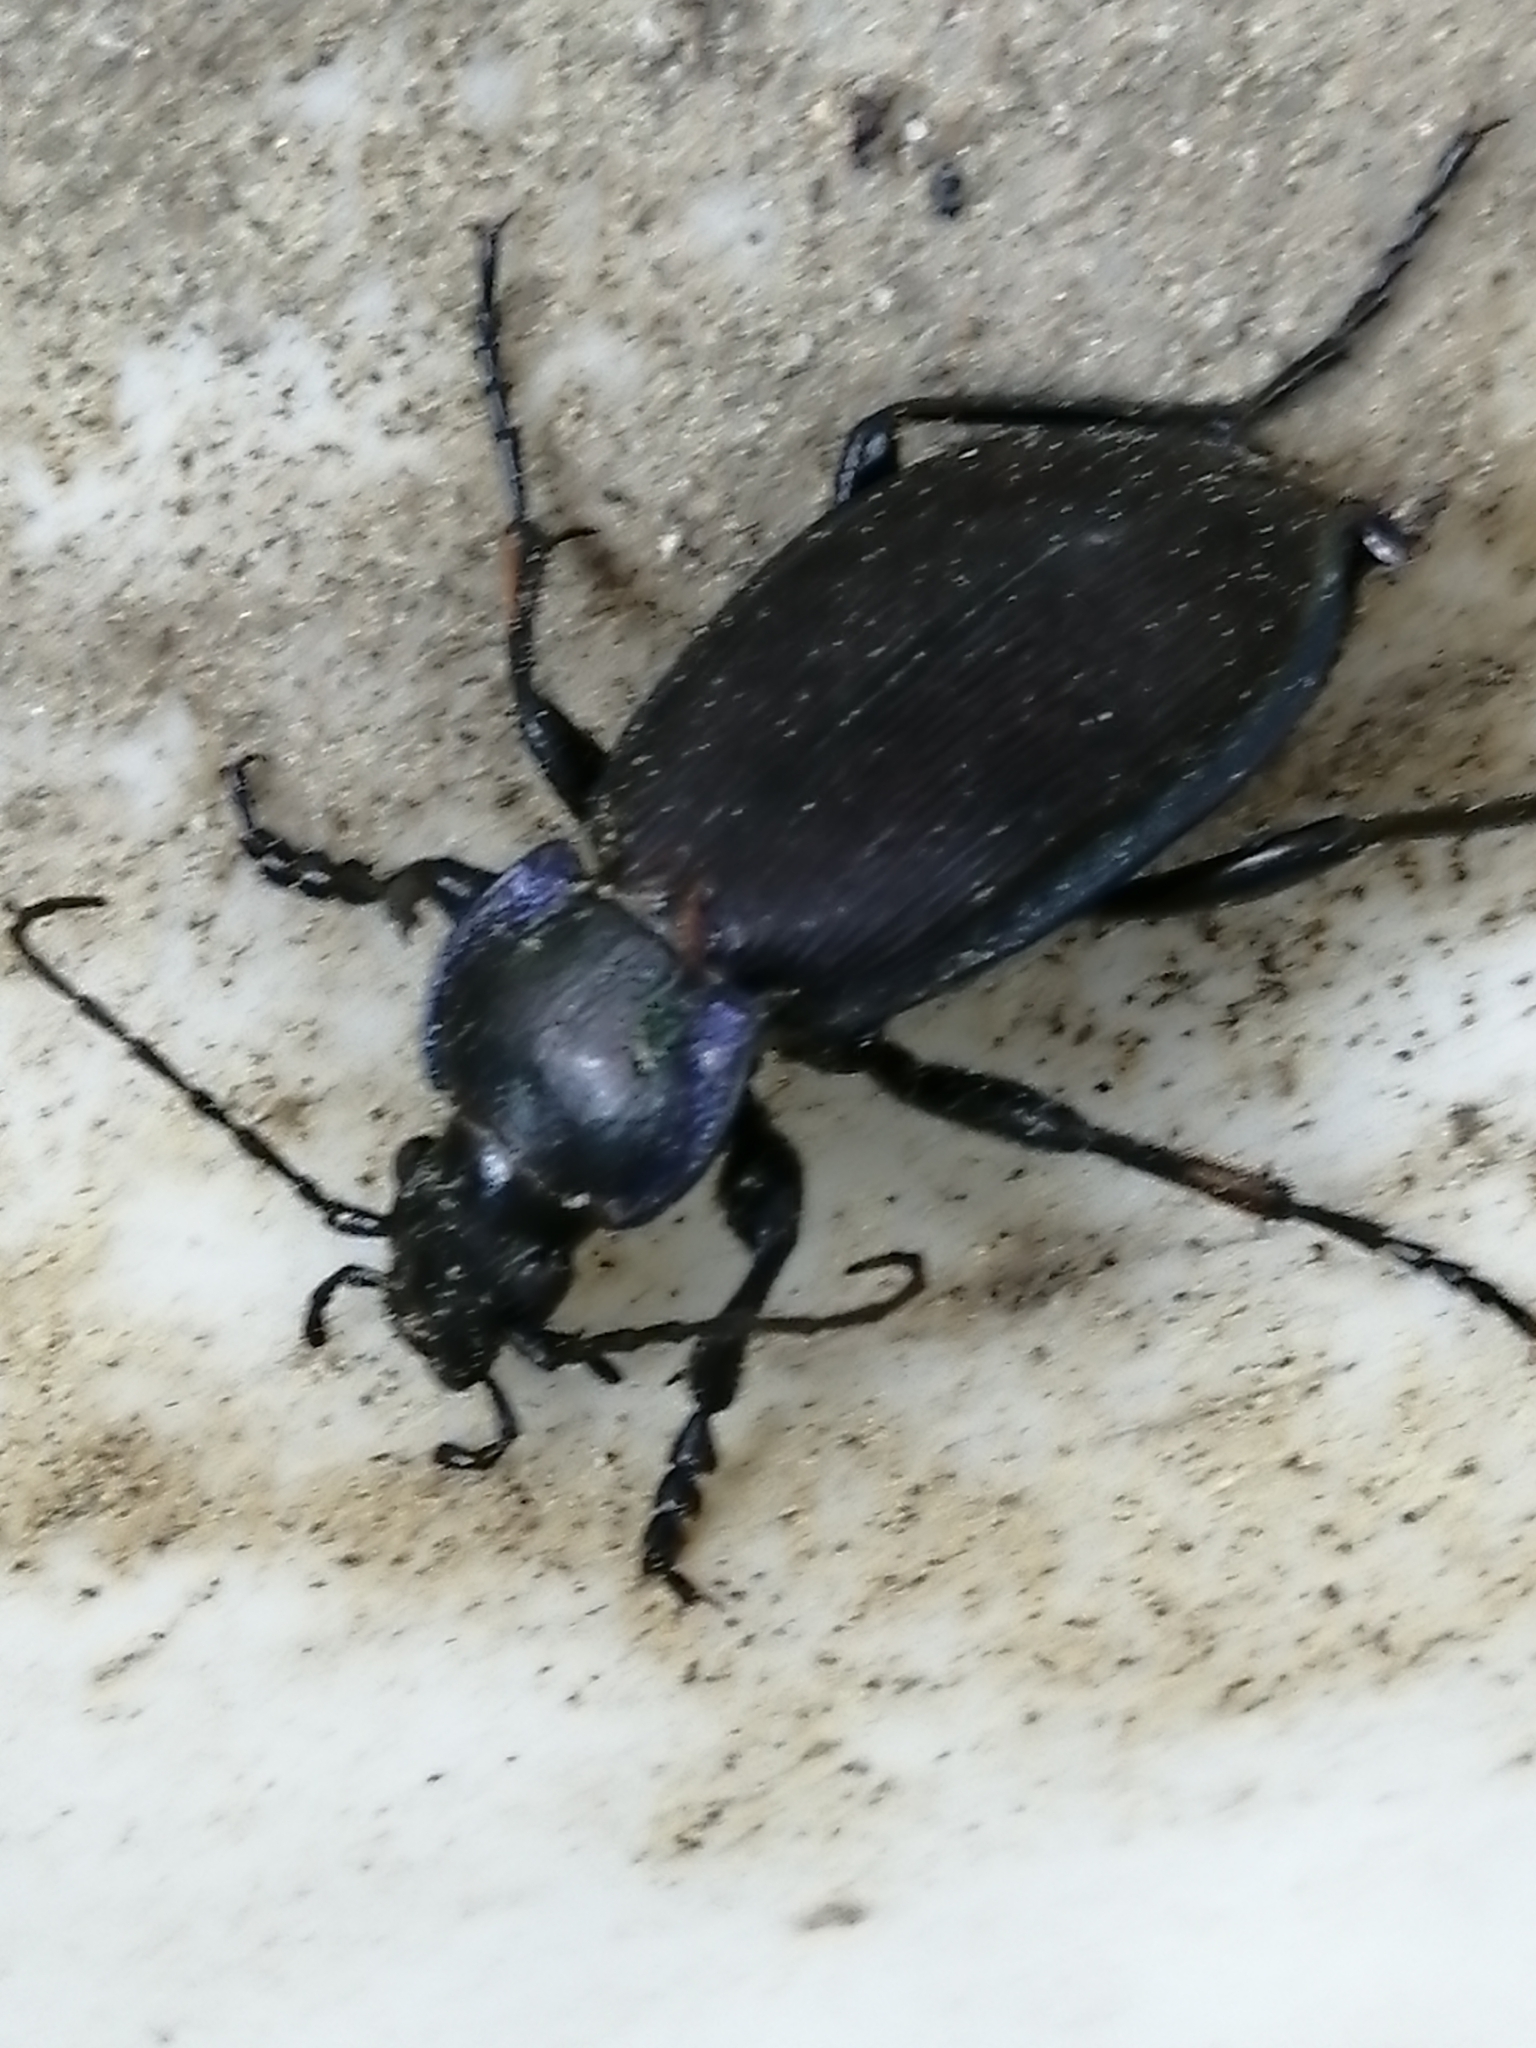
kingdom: Animalia
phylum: Arthropoda
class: Insecta
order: Coleoptera
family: Carabidae
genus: Carabus
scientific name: Carabus regalis
